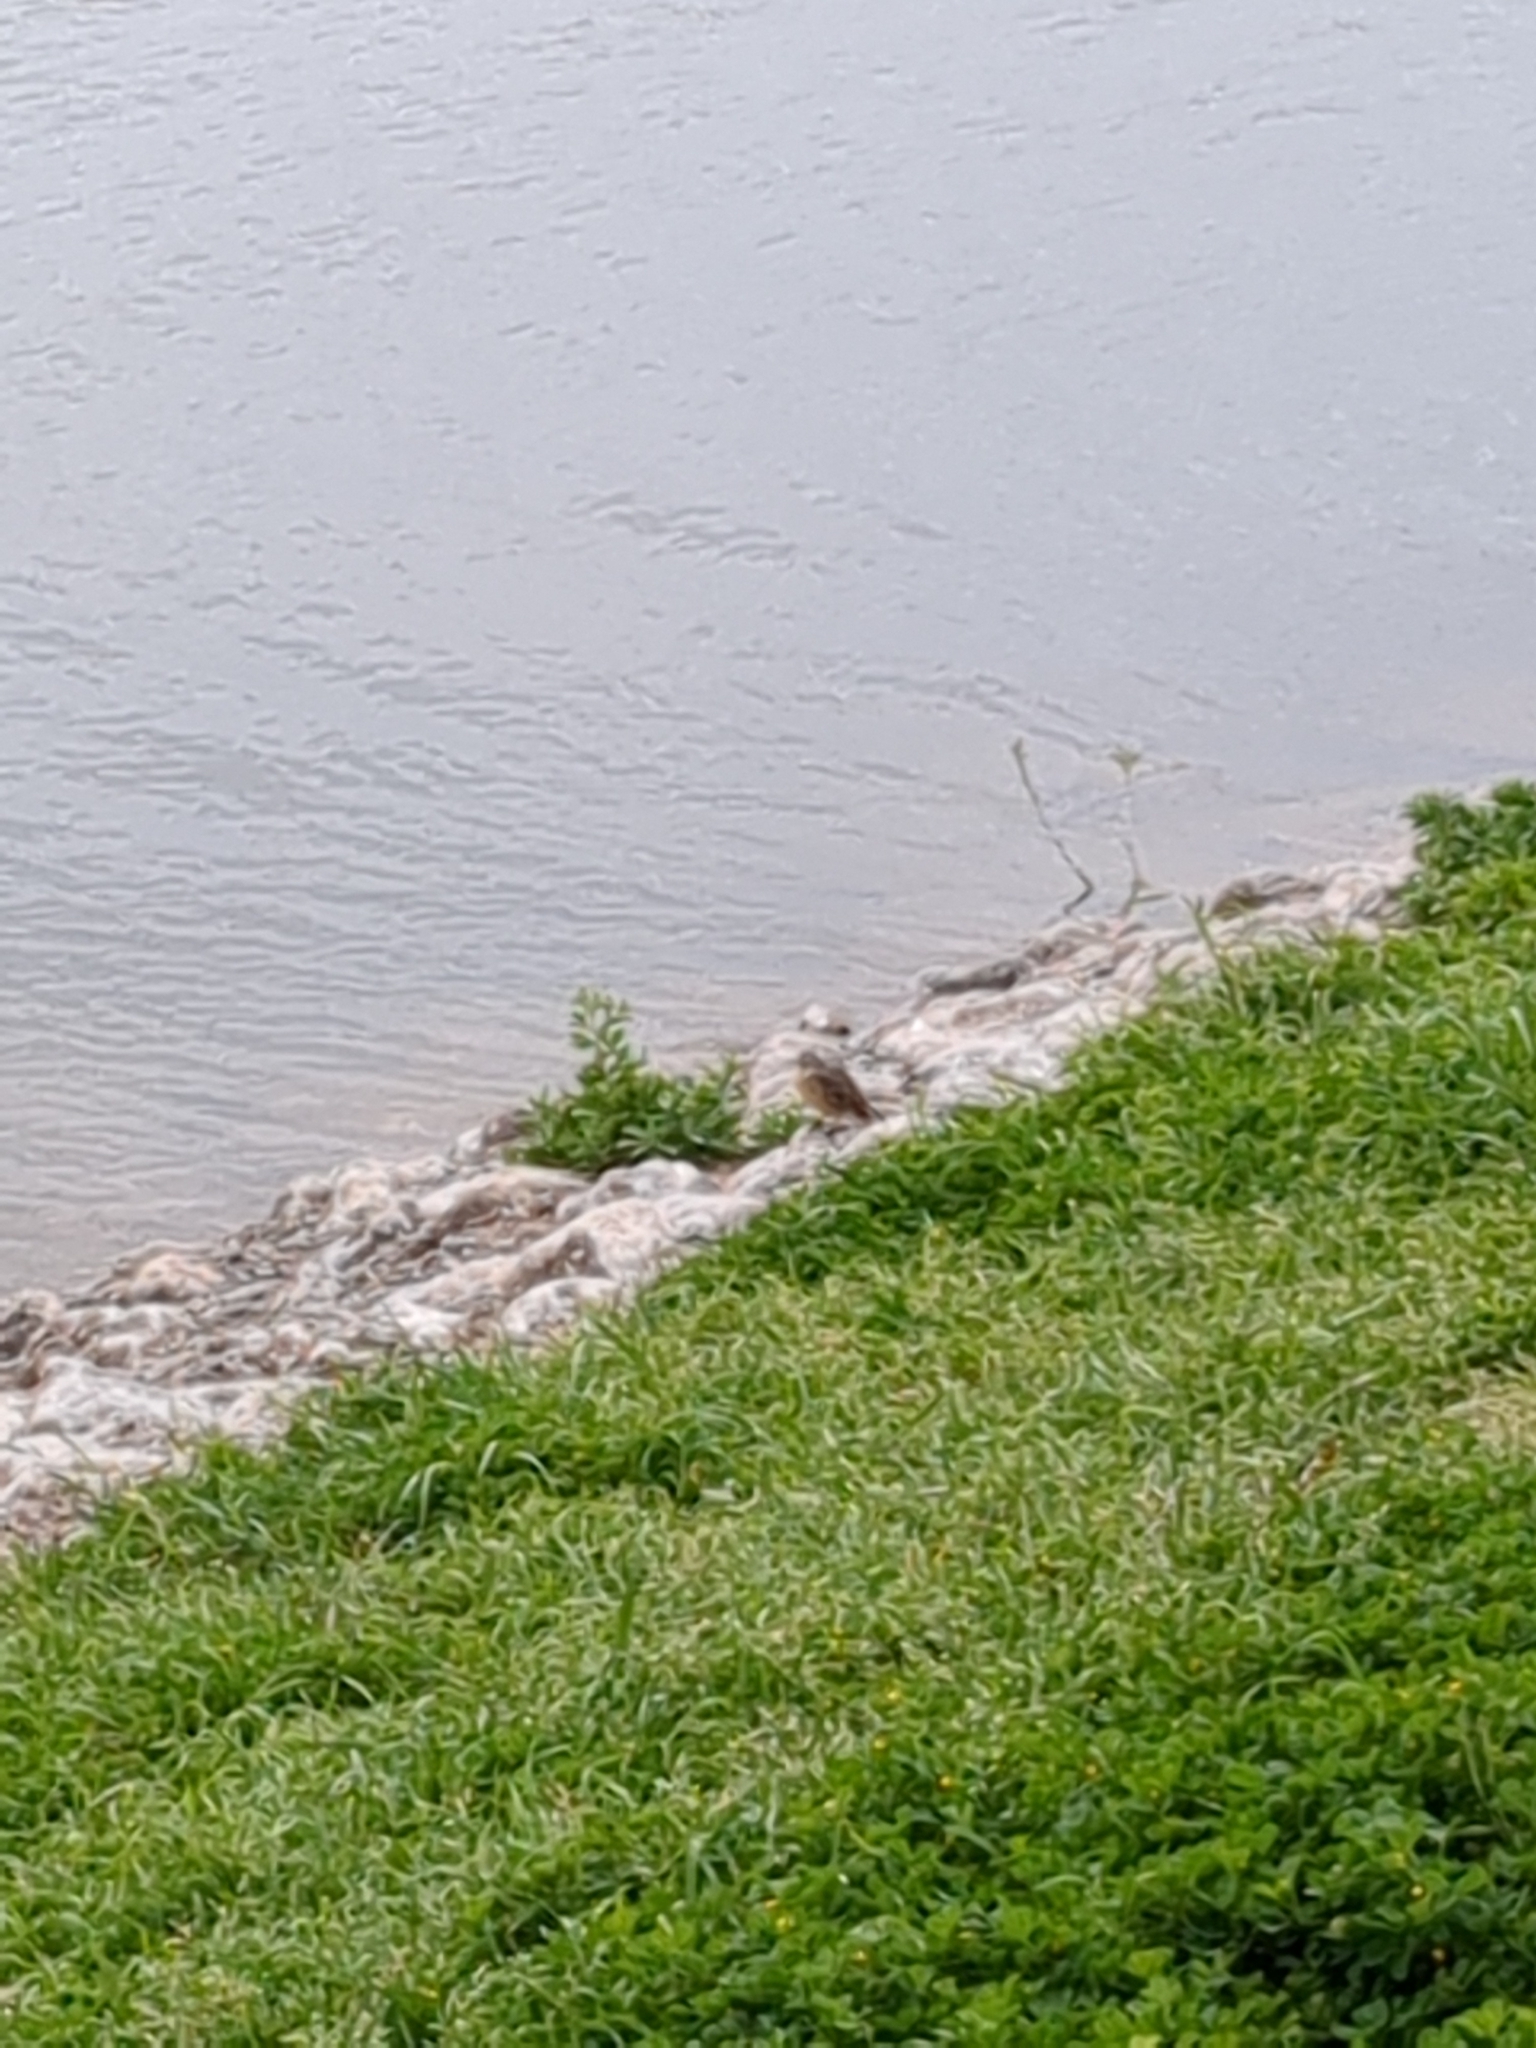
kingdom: Animalia
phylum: Chordata
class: Aves
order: Passeriformes
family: Motacillidae
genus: Anthus
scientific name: Anthus rubescens
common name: Buff-bellied pipit
